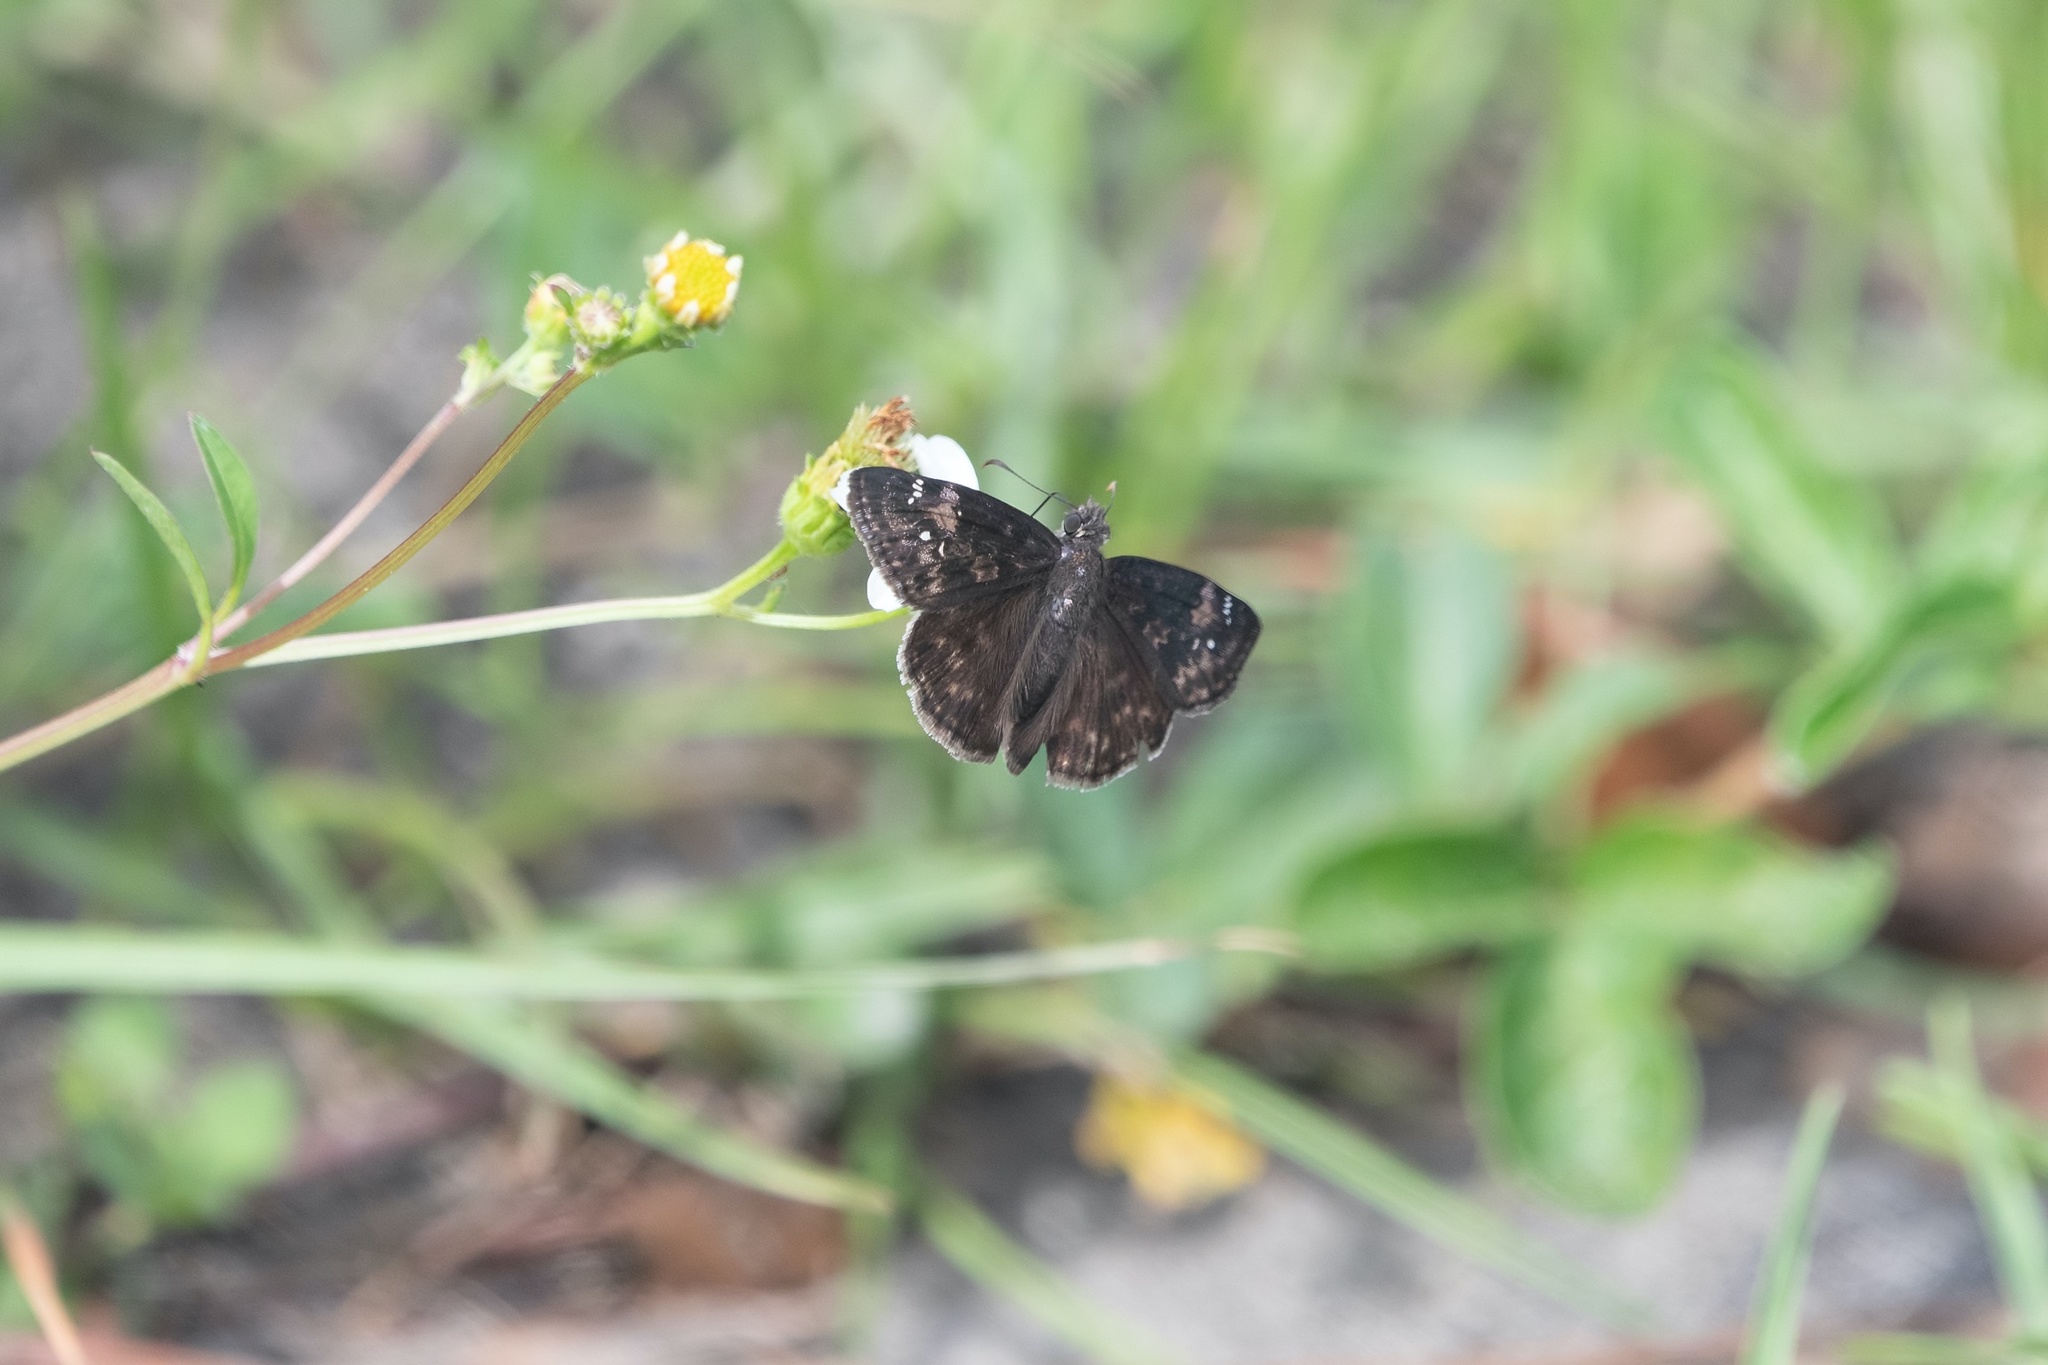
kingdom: Animalia
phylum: Arthropoda
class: Insecta
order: Lepidoptera
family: Hesperiidae
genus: Erynnis
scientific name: Erynnis zarucco
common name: Zarucco duskywing
